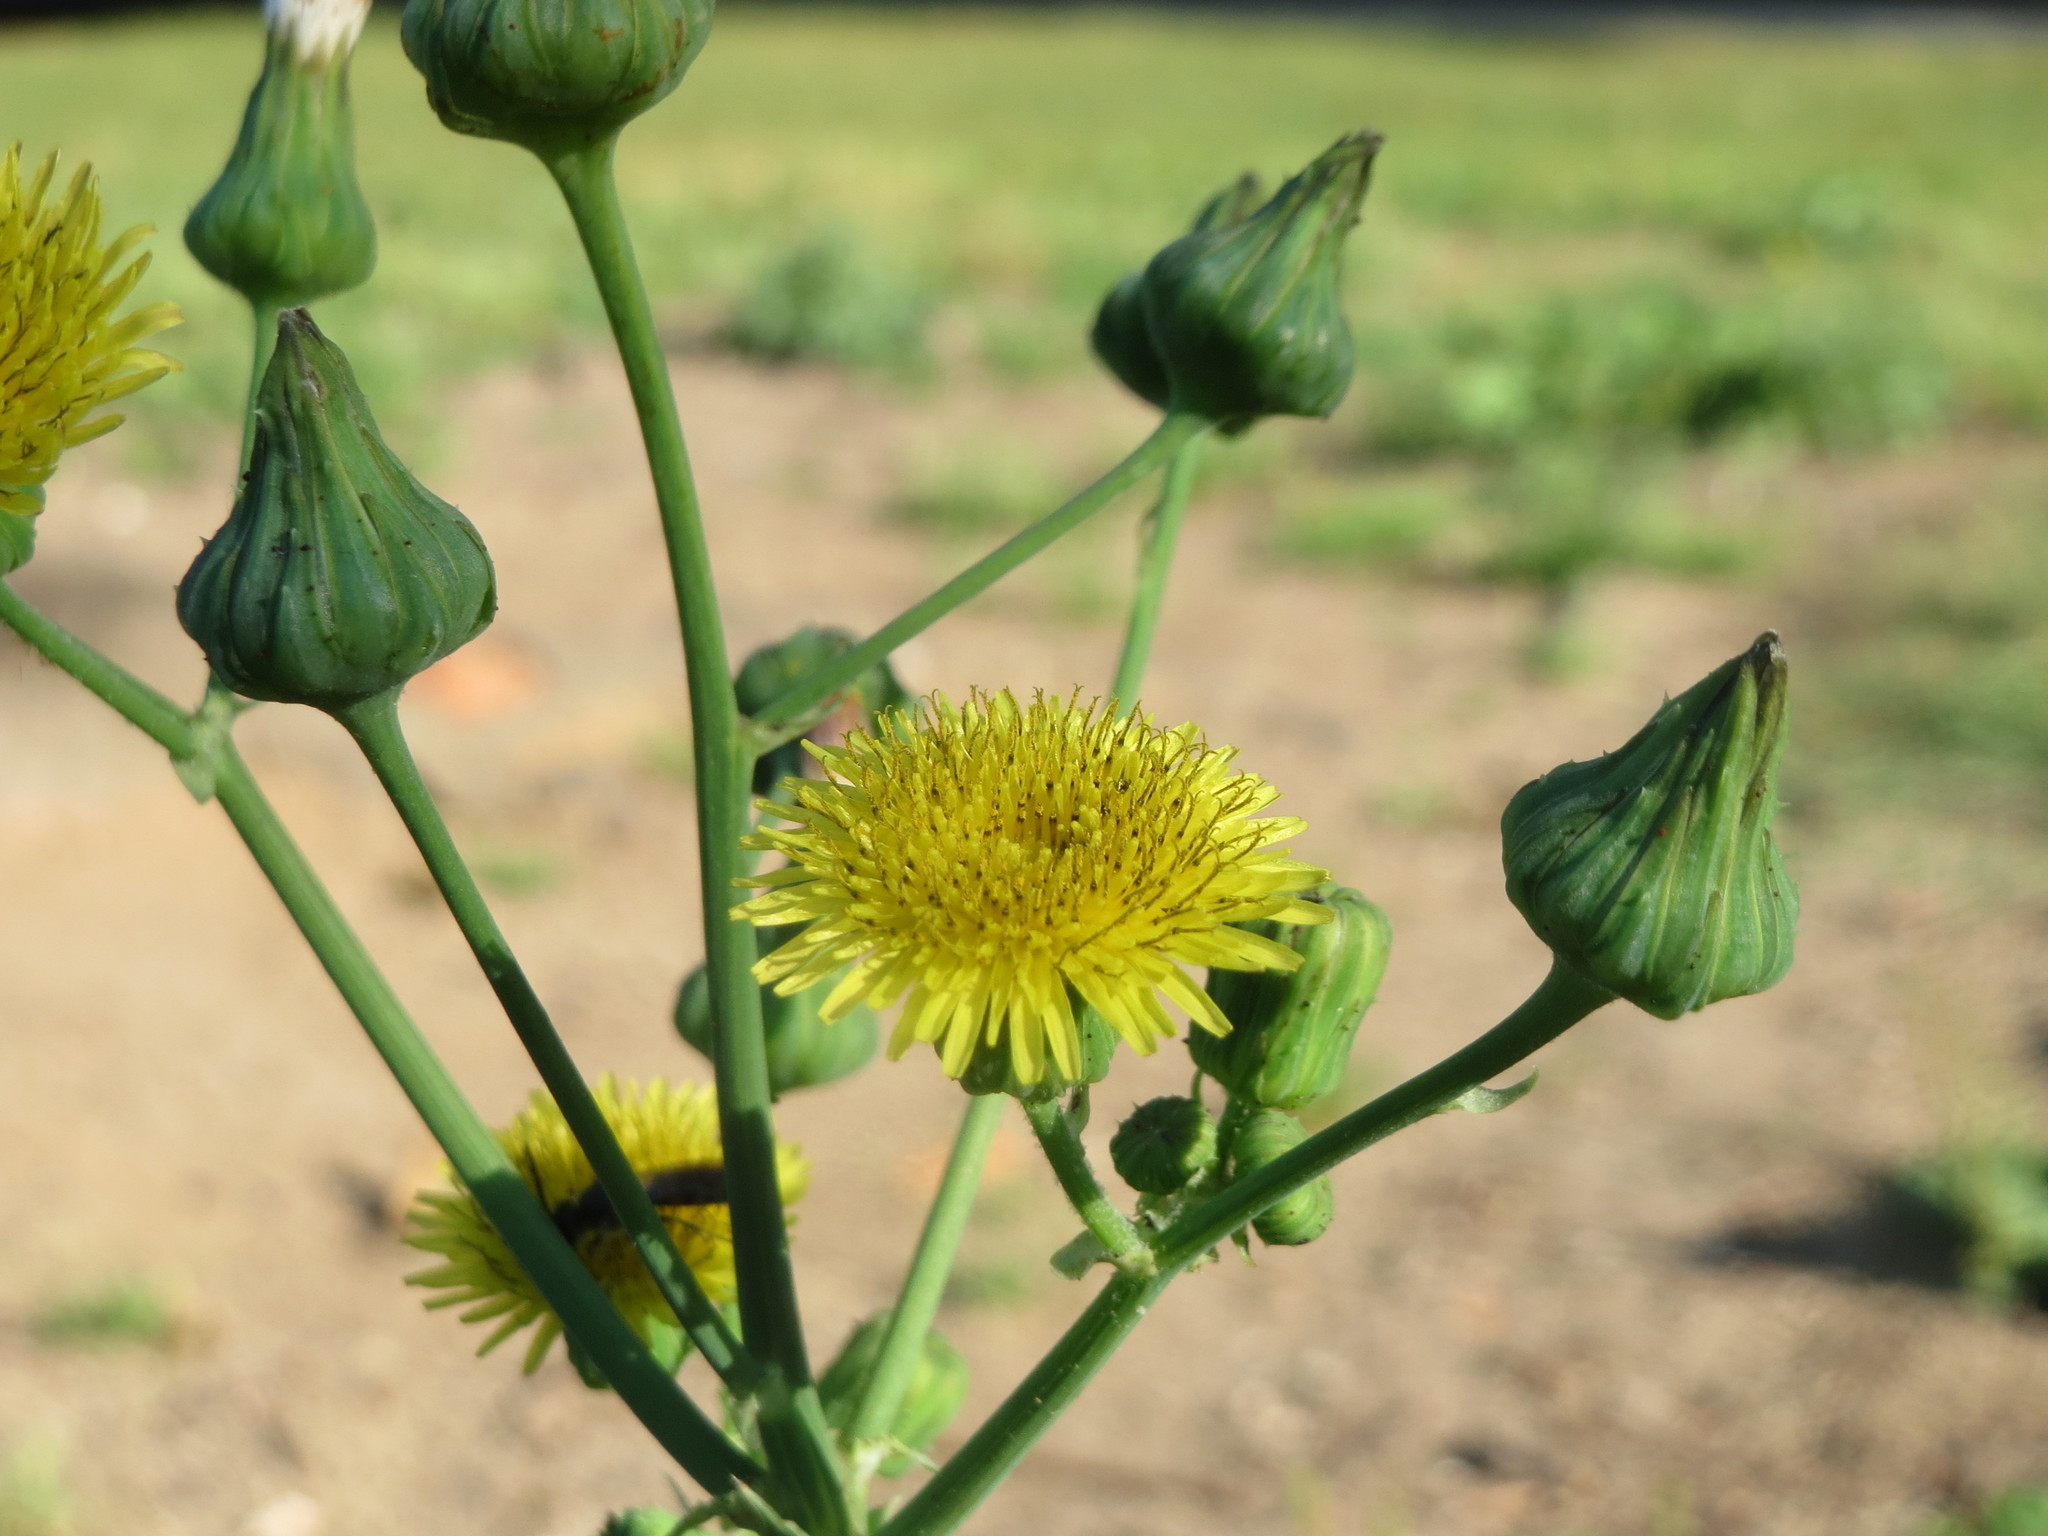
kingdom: Plantae
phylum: Tracheophyta
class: Magnoliopsida
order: Asterales
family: Asteraceae
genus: Sonchus
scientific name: Sonchus asper
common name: Prickly sow-thistle
